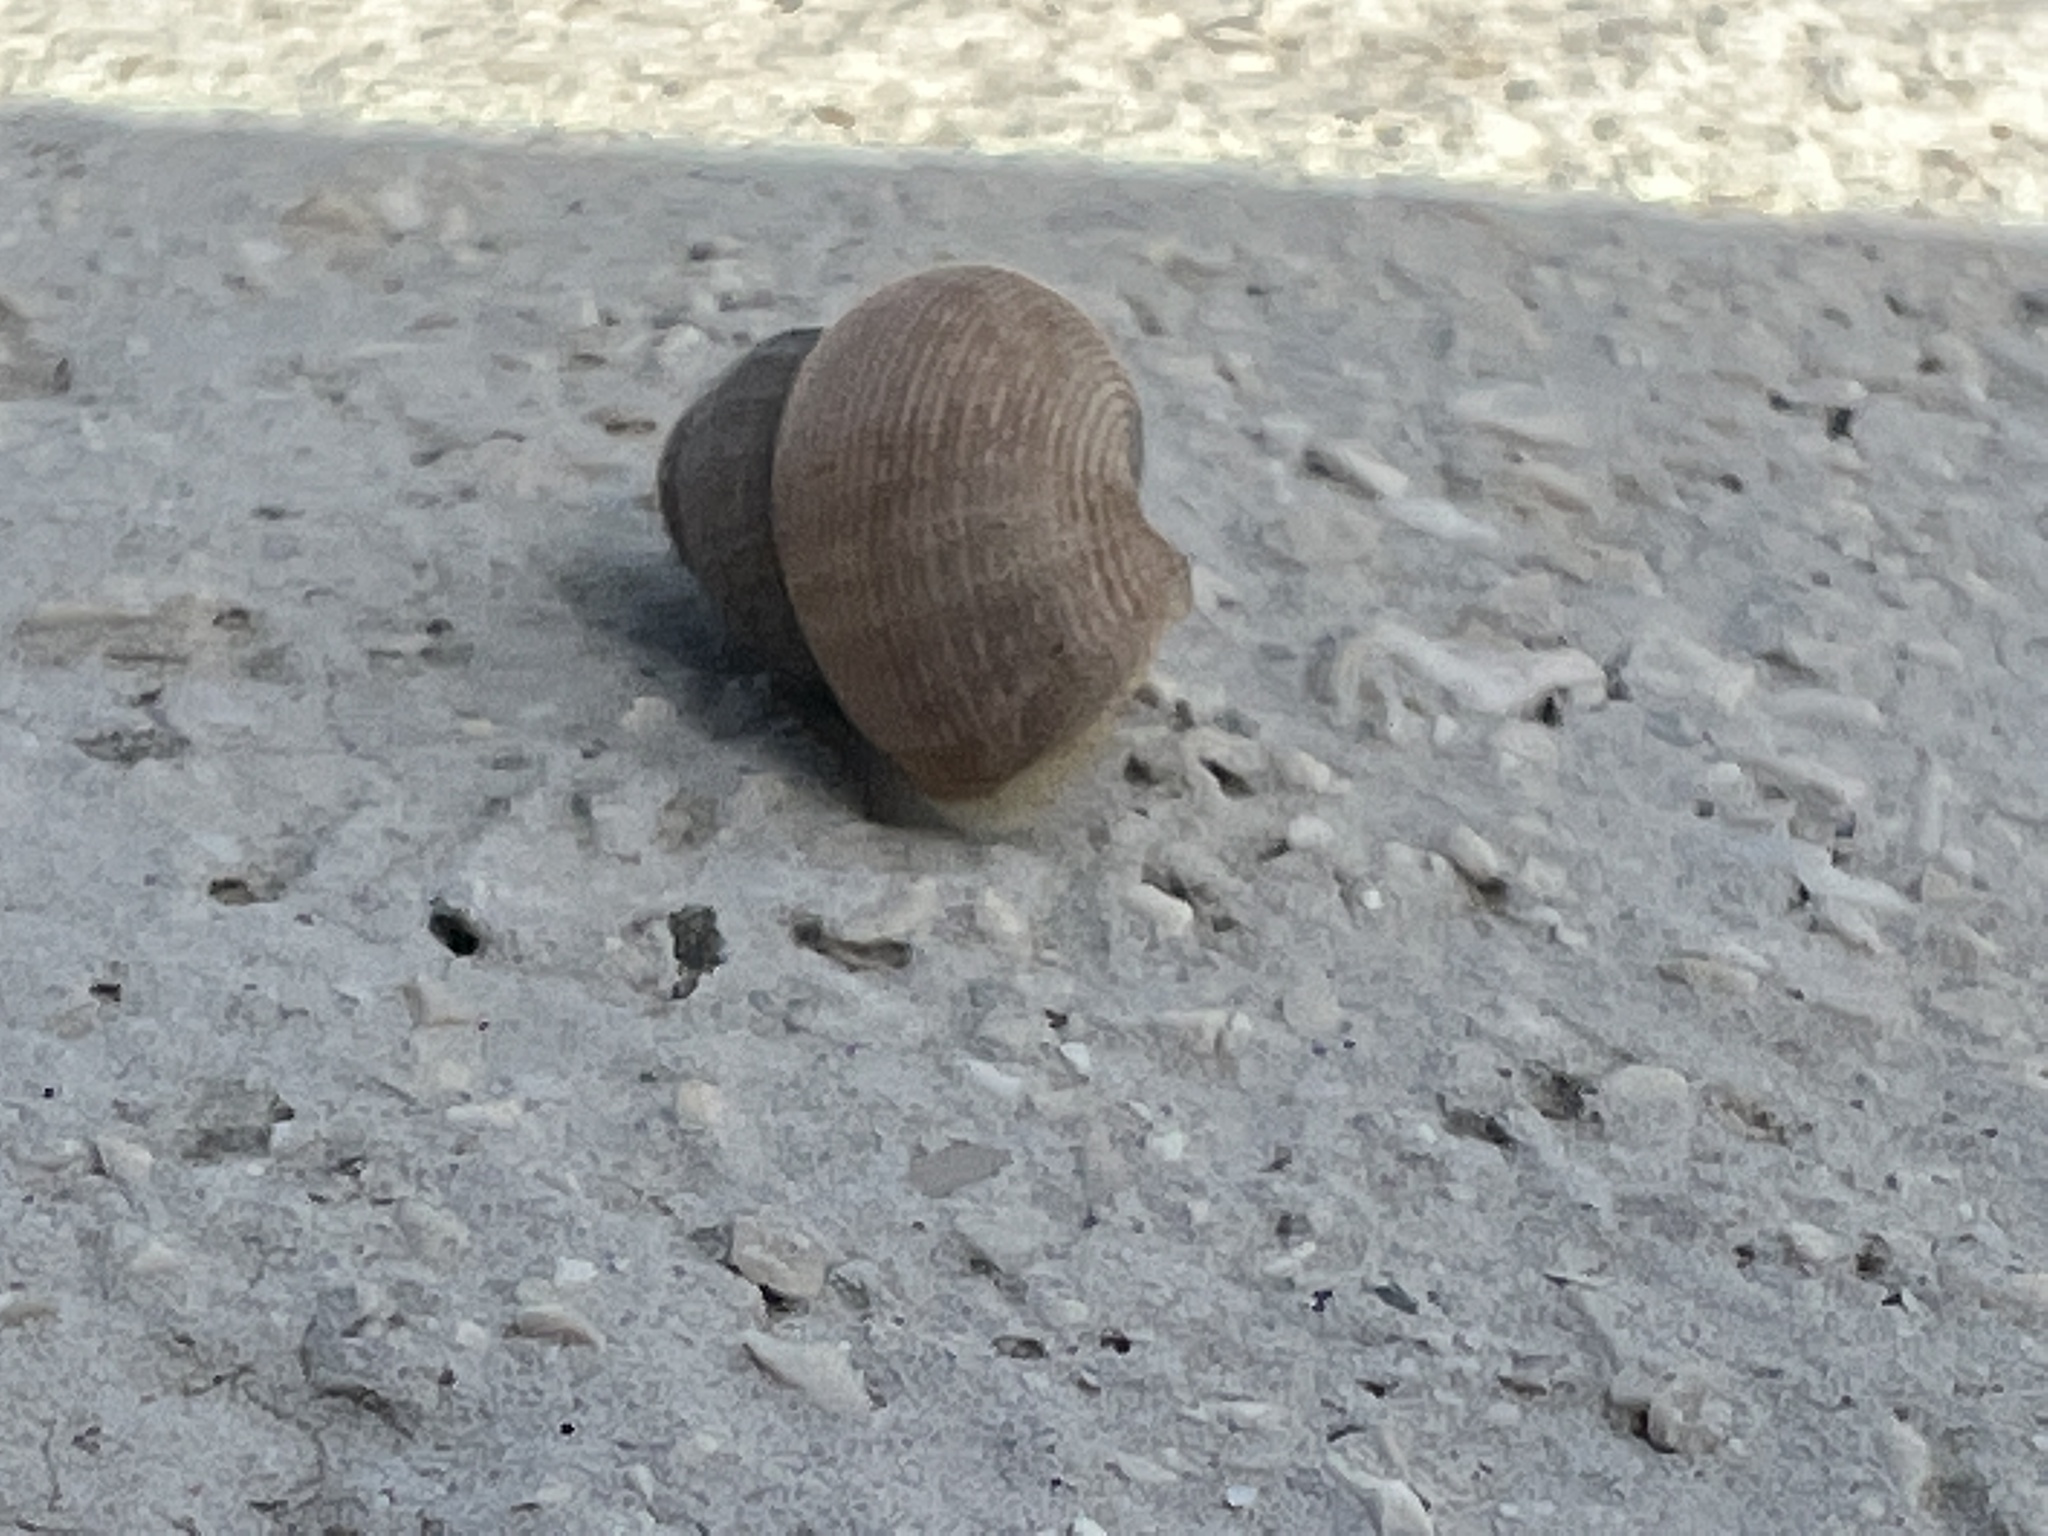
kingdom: Animalia
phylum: Mollusca
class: Gastropoda
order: Littorinimorpha
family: Pomatiidae
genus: Pomatias
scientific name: Pomatias elegans
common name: Red-mouthed snail
